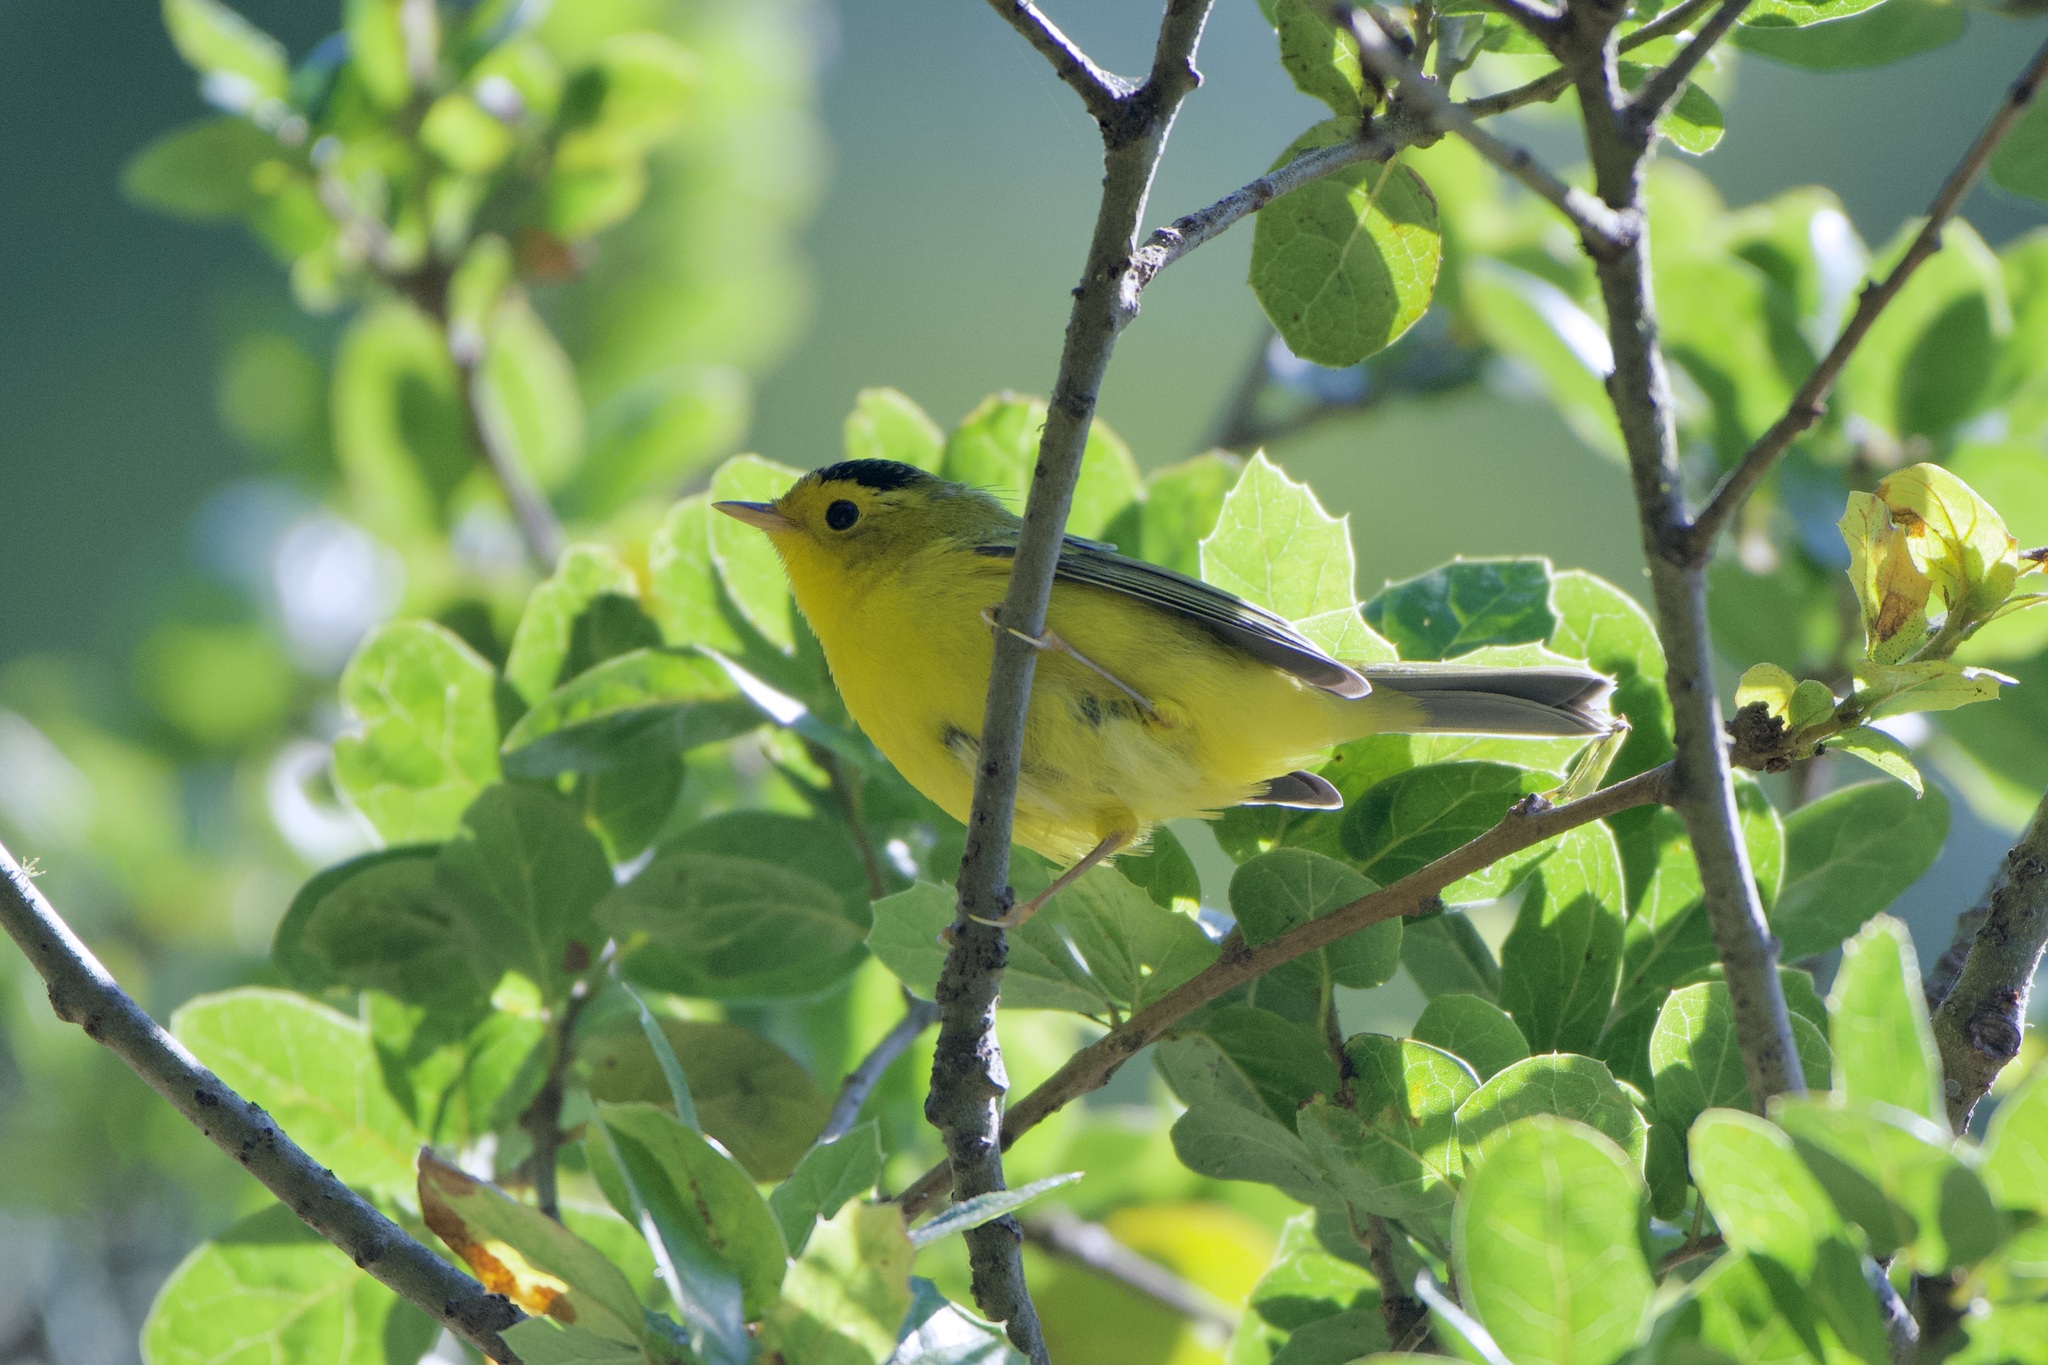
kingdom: Animalia
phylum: Chordata
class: Aves
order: Passeriformes
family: Parulidae
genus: Cardellina
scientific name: Cardellina pusilla
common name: Wilson's warbler
